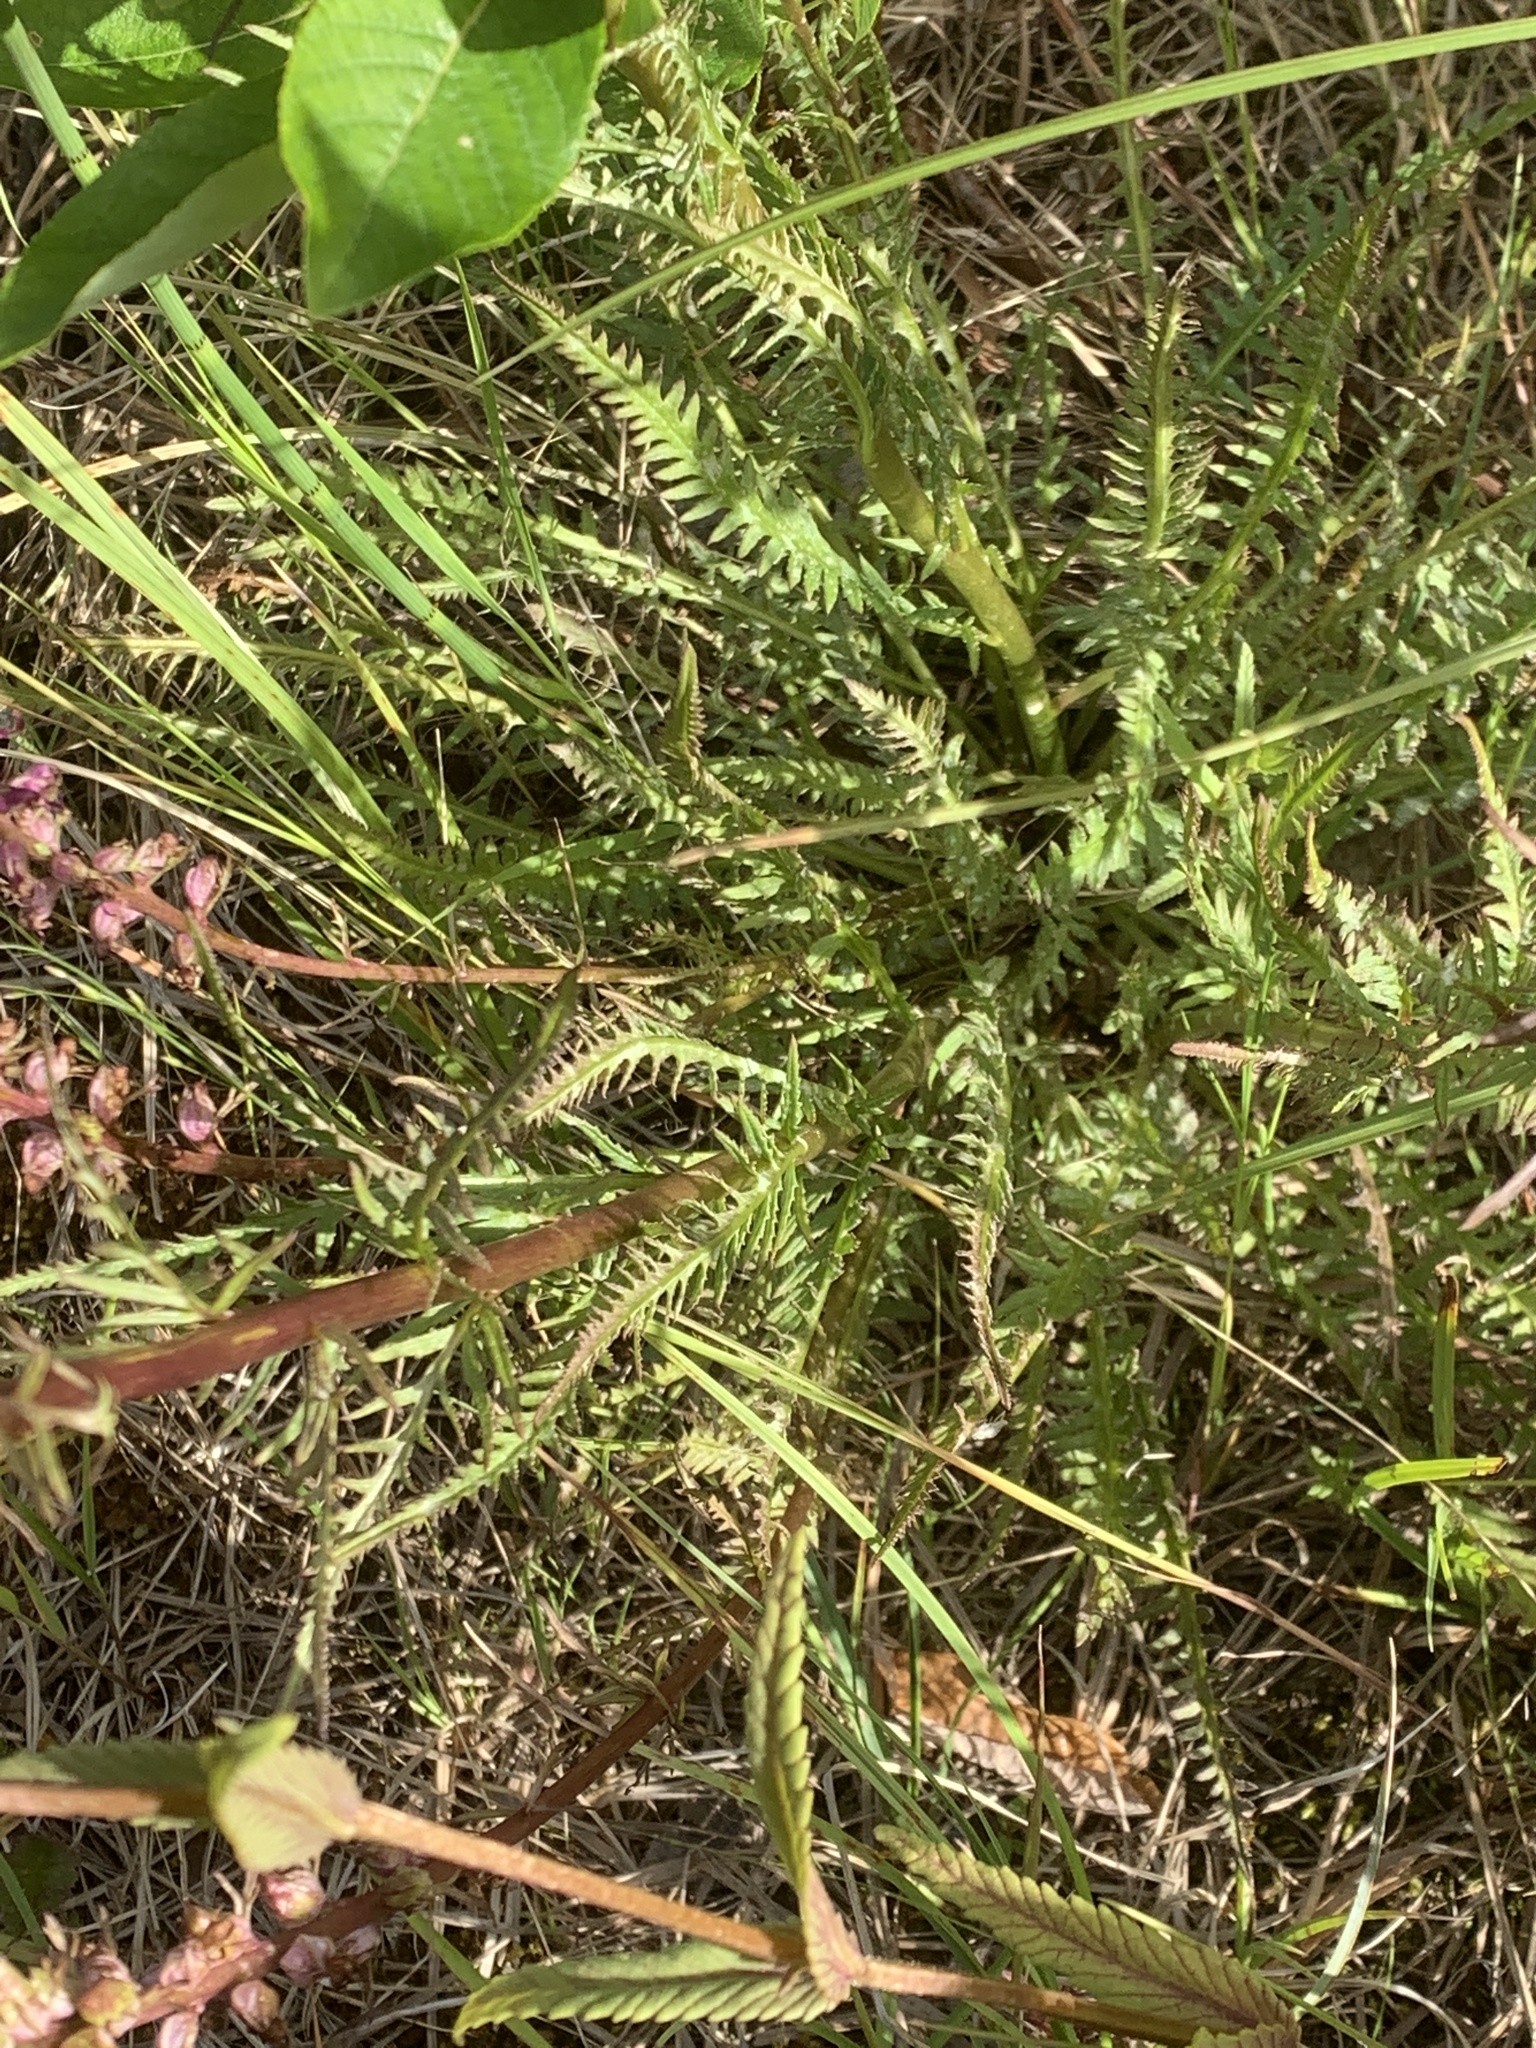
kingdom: Plantae
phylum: Tracheophyta
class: Magnoliopsida
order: Lamiales
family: Orobanchaceae
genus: Pedicularis
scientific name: Pedicularis groenlandica
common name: Elephant's-head
